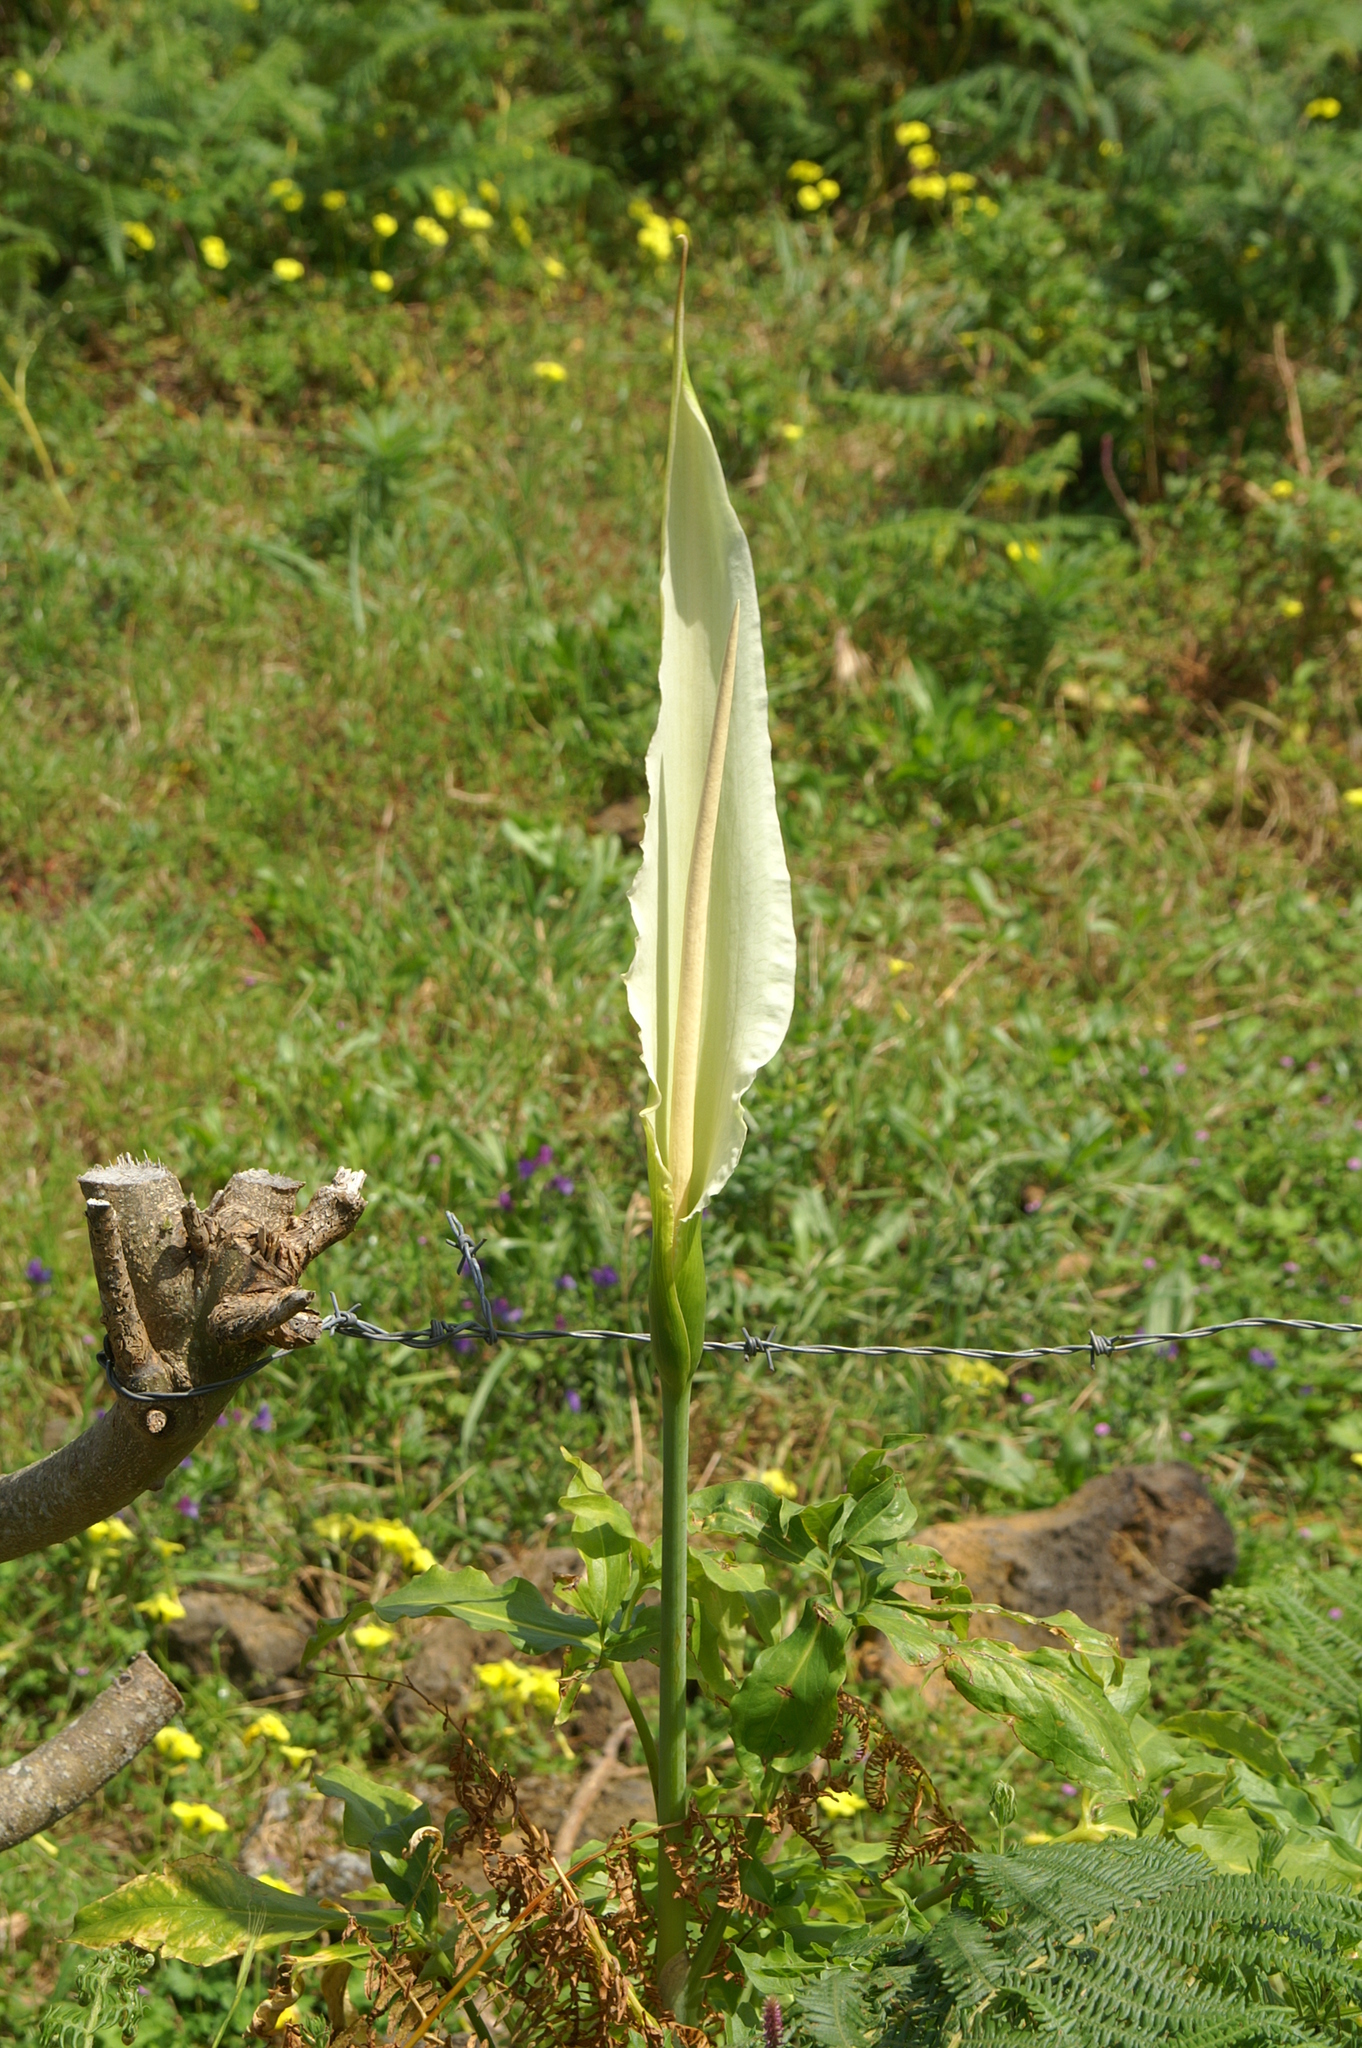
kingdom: Plantae
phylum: Tracheophyta
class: Liliopsida
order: Alismatales
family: Araceae
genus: Dracunculus
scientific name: Dracunculus canariensis
